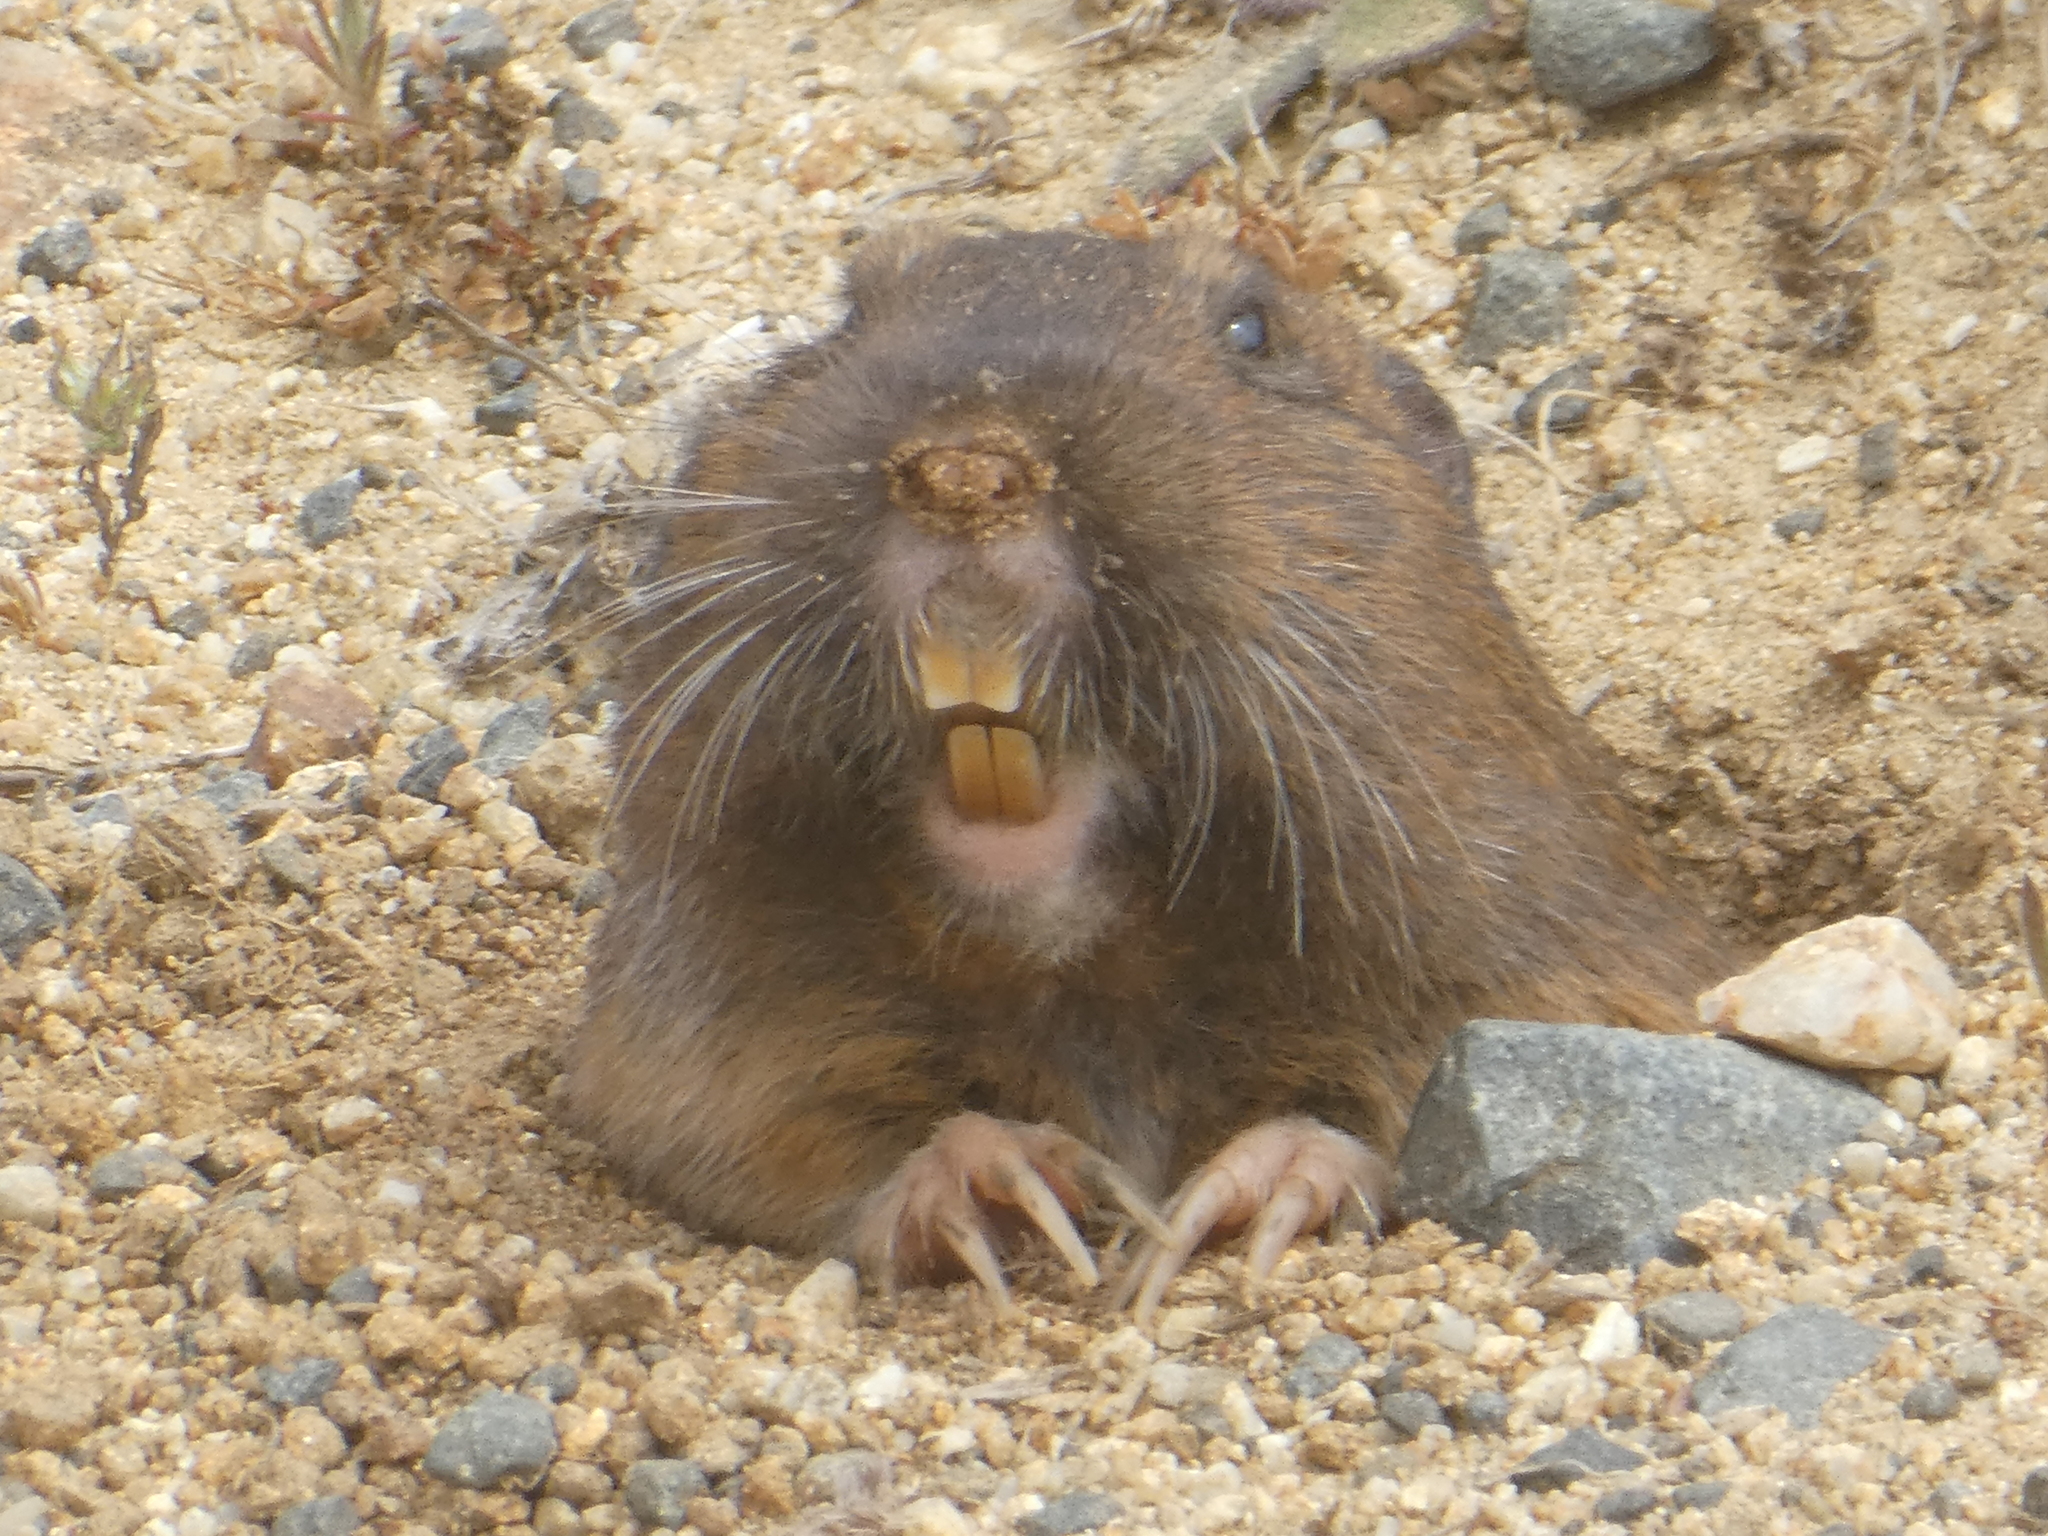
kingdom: Animalia
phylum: Chordata
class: Mammalia
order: Rodentia
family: Geomyidae
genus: Thomomys
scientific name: Thomomys bottae
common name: Botta's pocket gopher
